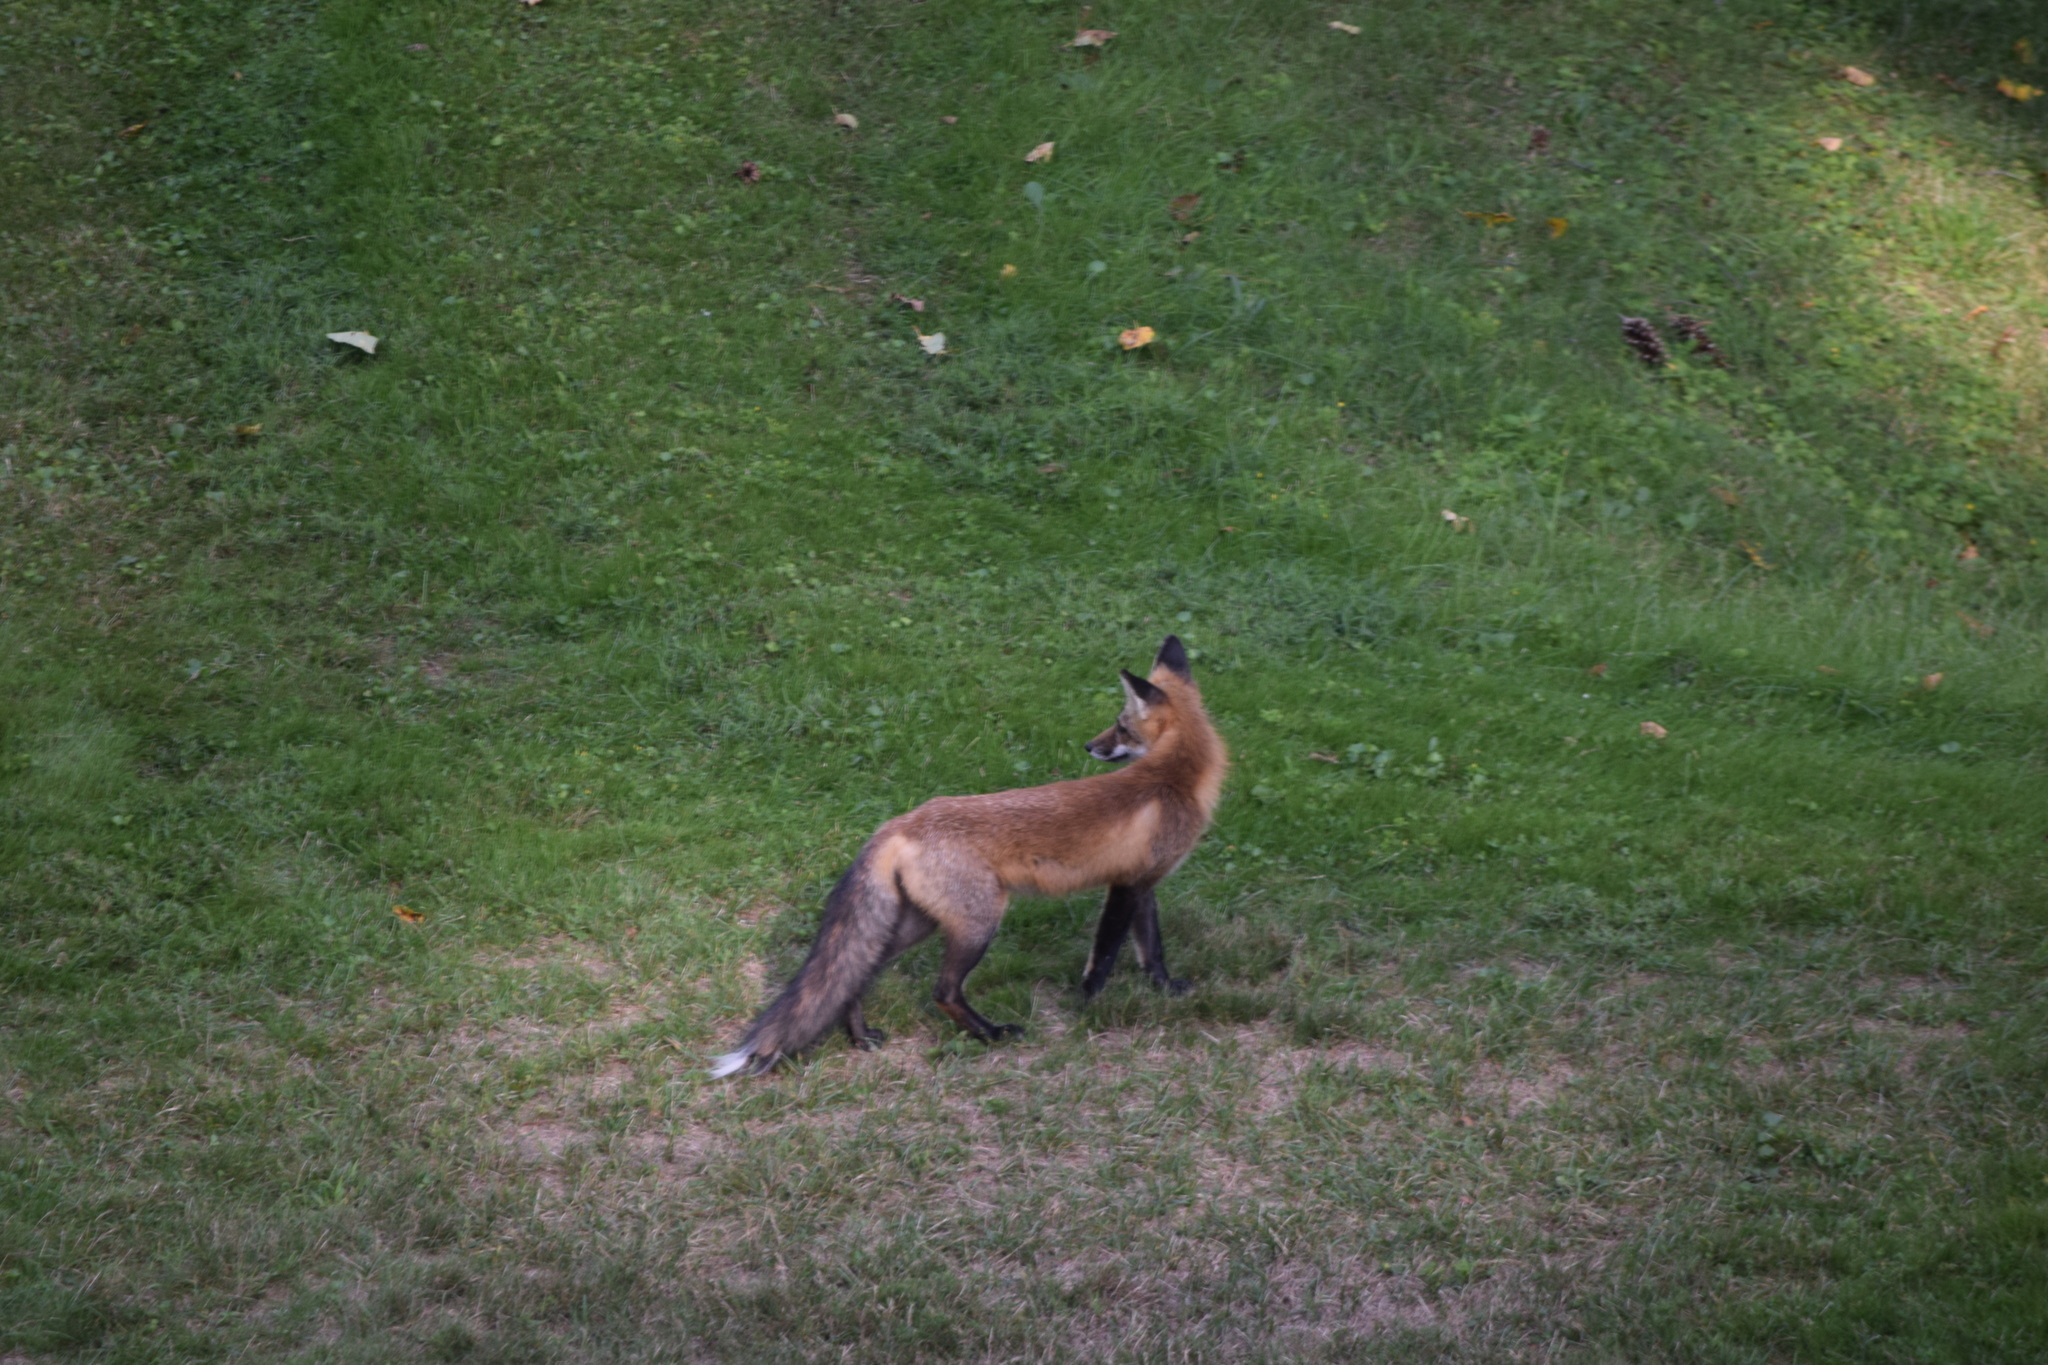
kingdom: Animalia
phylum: Chordata
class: Mammalia
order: Carnivora
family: Canidae
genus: Vulpes
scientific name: Vulpes vulpes
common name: Red fox
